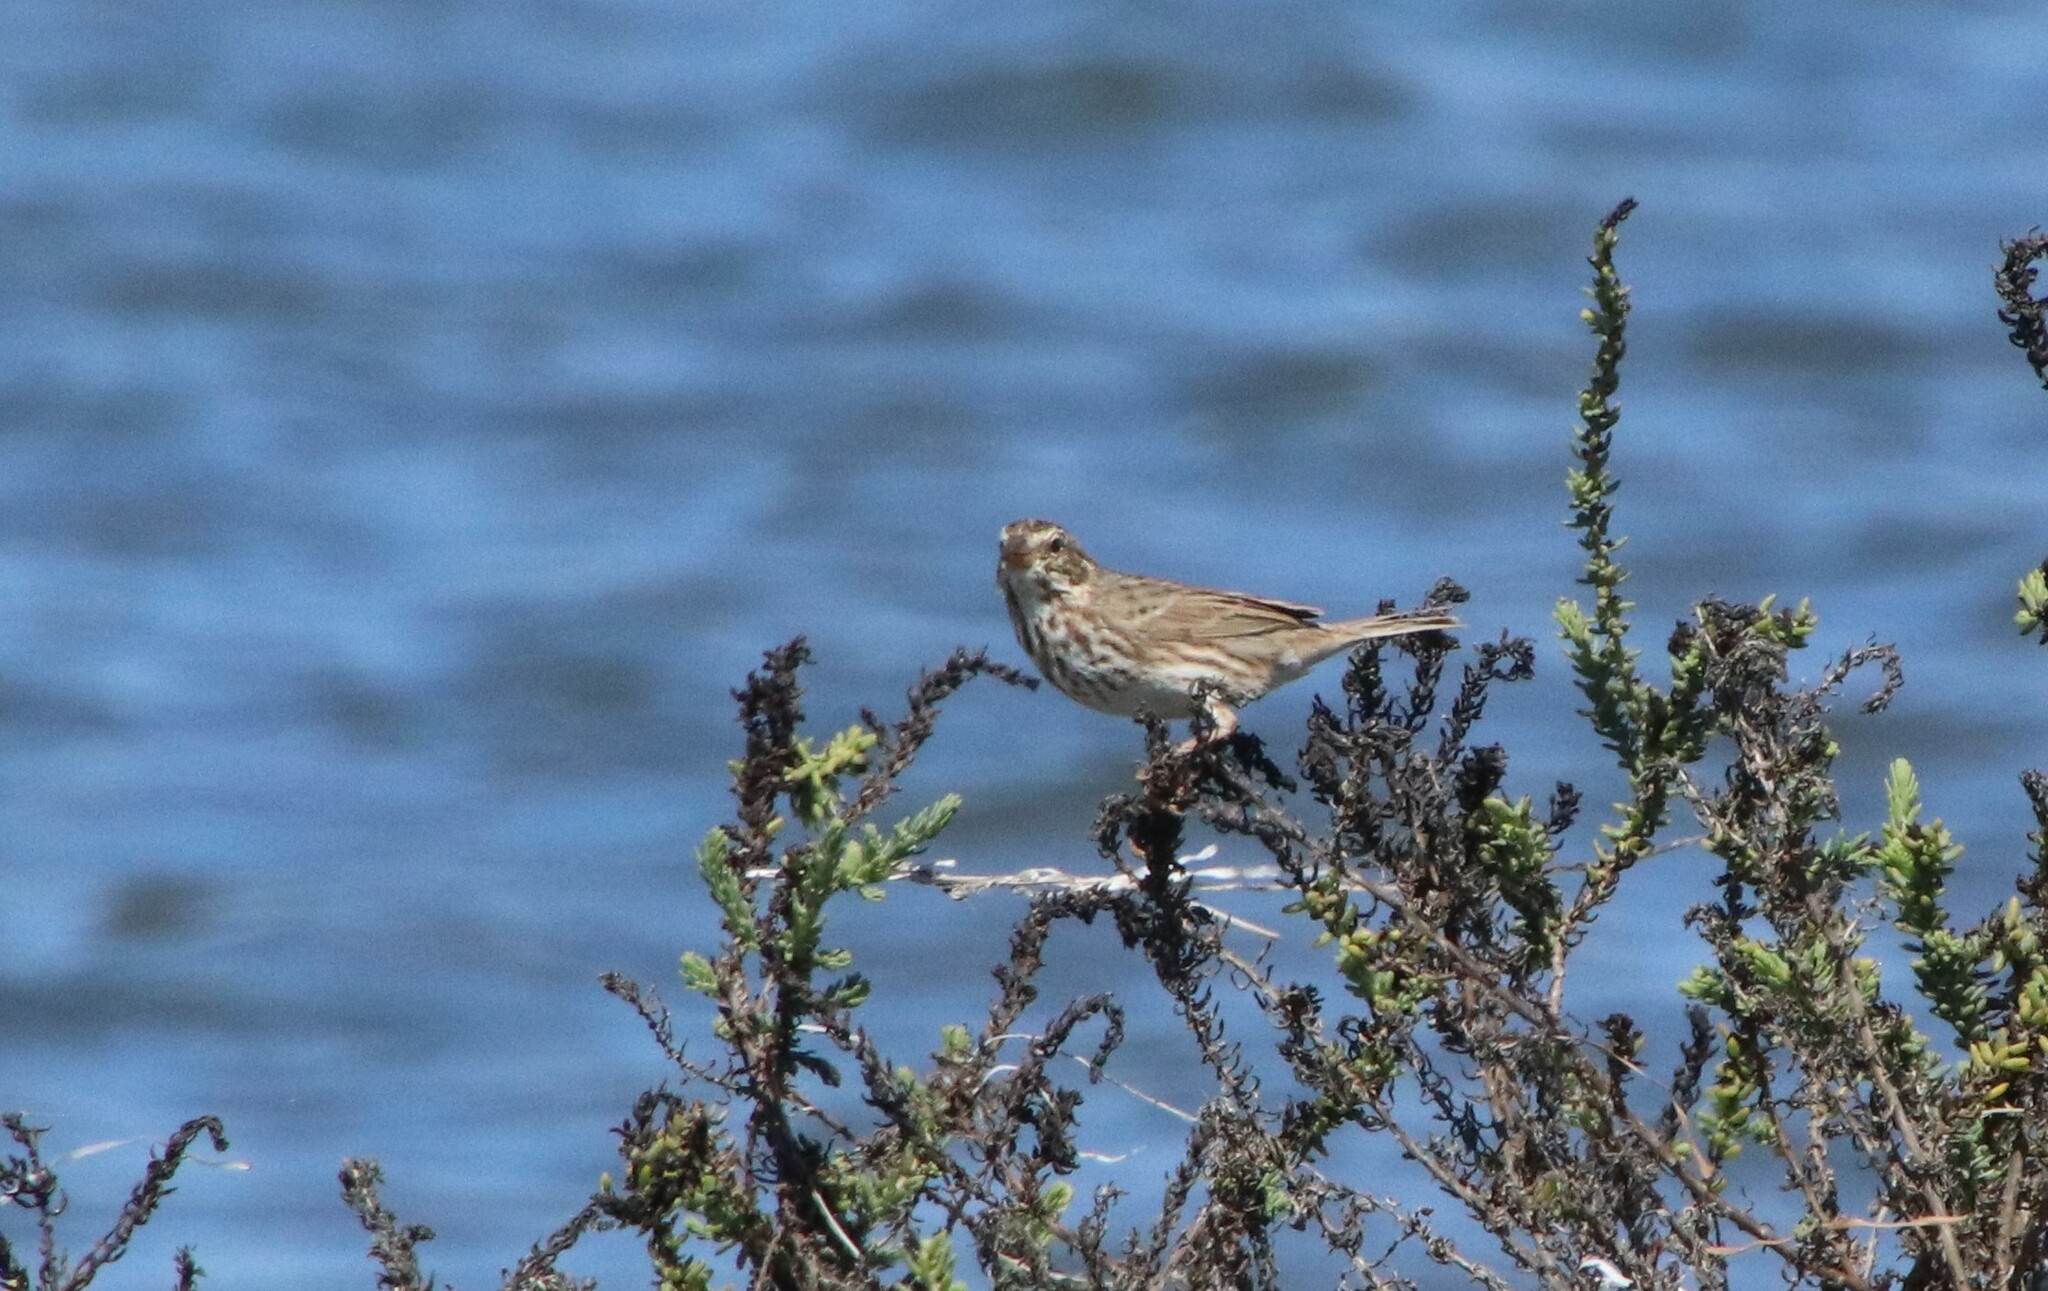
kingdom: Animalia
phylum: Chordata
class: Aves
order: Passeriformes
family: Passerellidae
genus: Passerculus
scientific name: Passerculus sandwichensis
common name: Savannah sparrow
